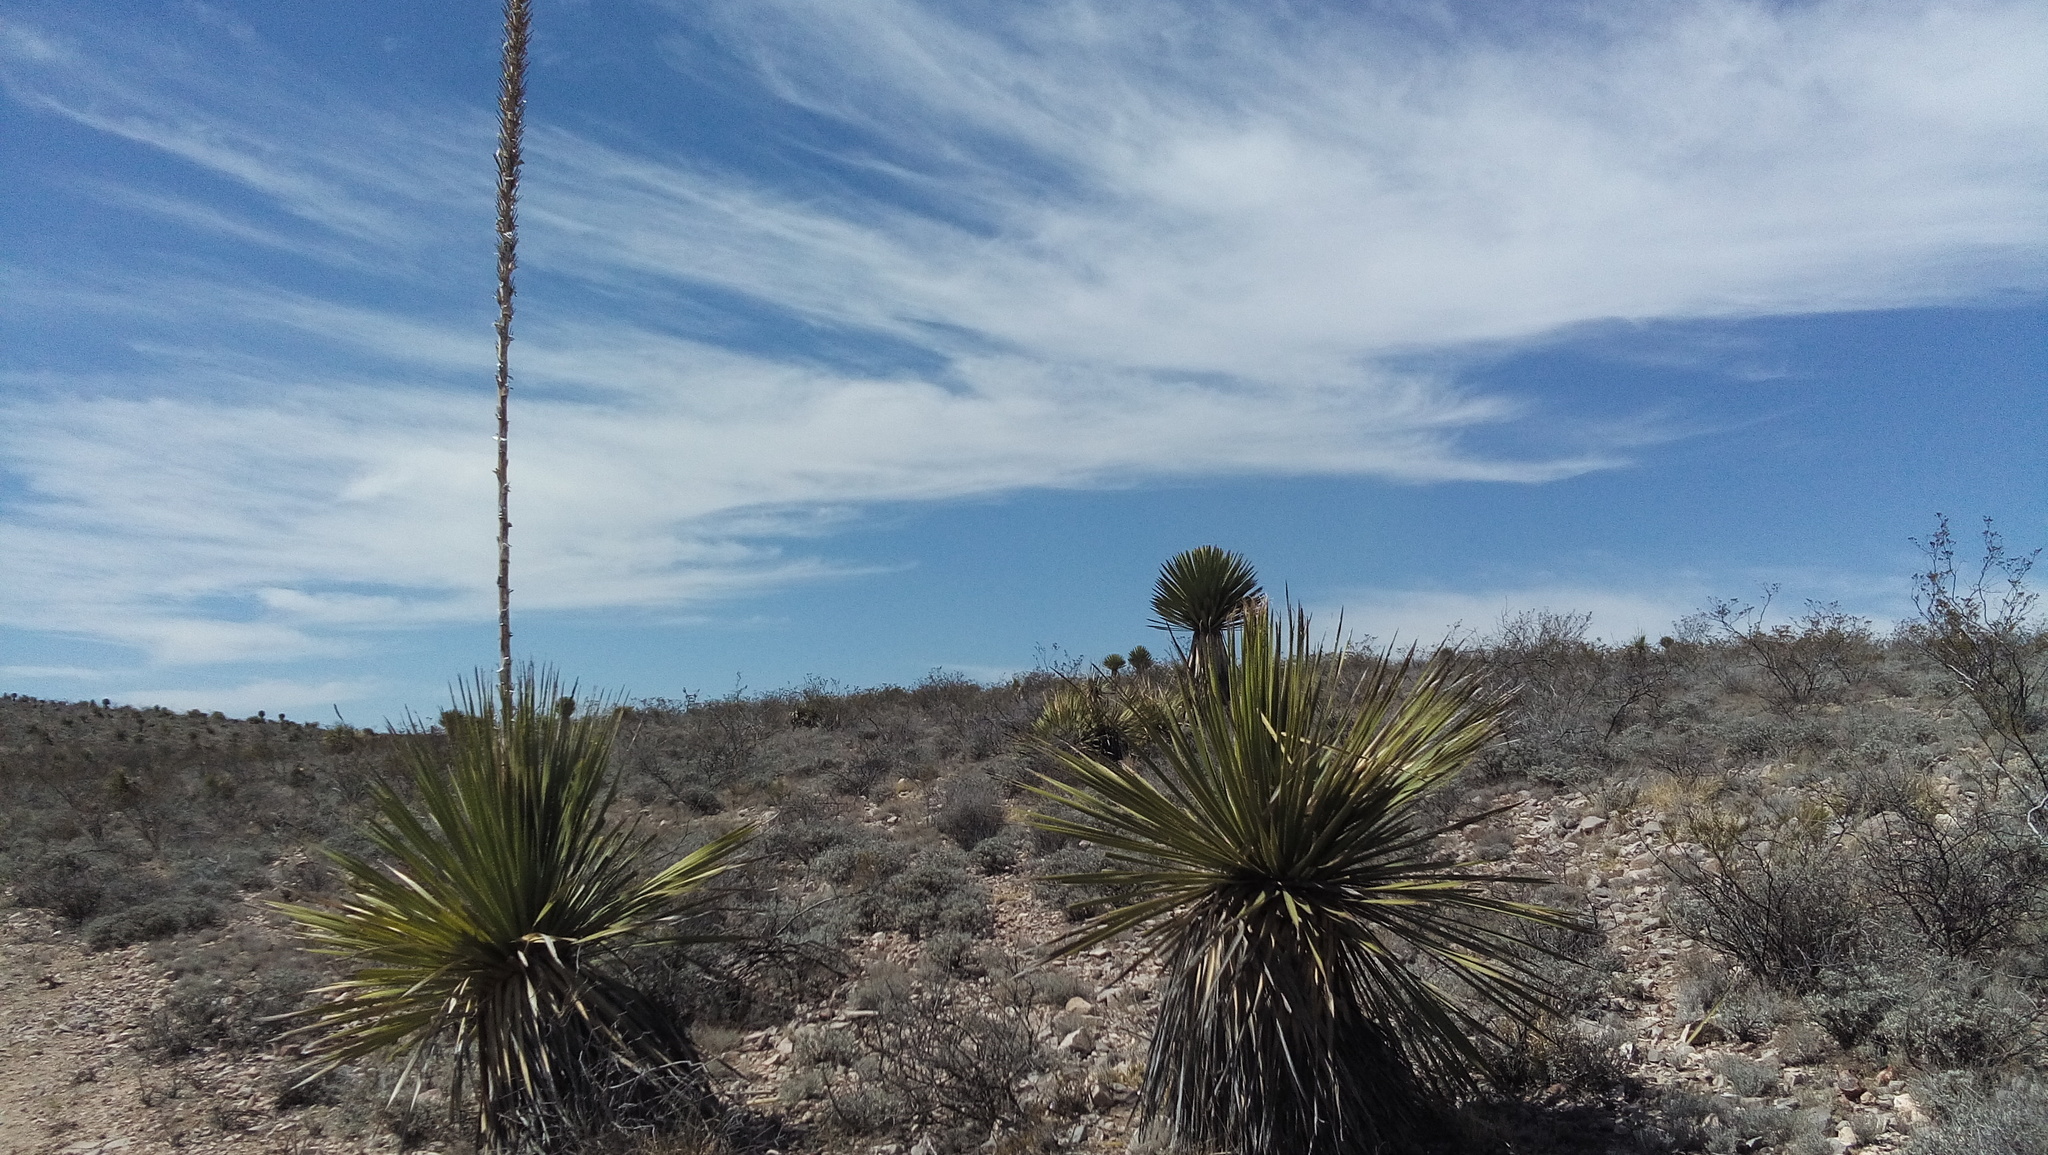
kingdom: Plantae
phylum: Tracheophyta
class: Magnoliopsida
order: Asterales
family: Asteraceae
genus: Parthenium
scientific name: Parthenium argentatum
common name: Guayule
